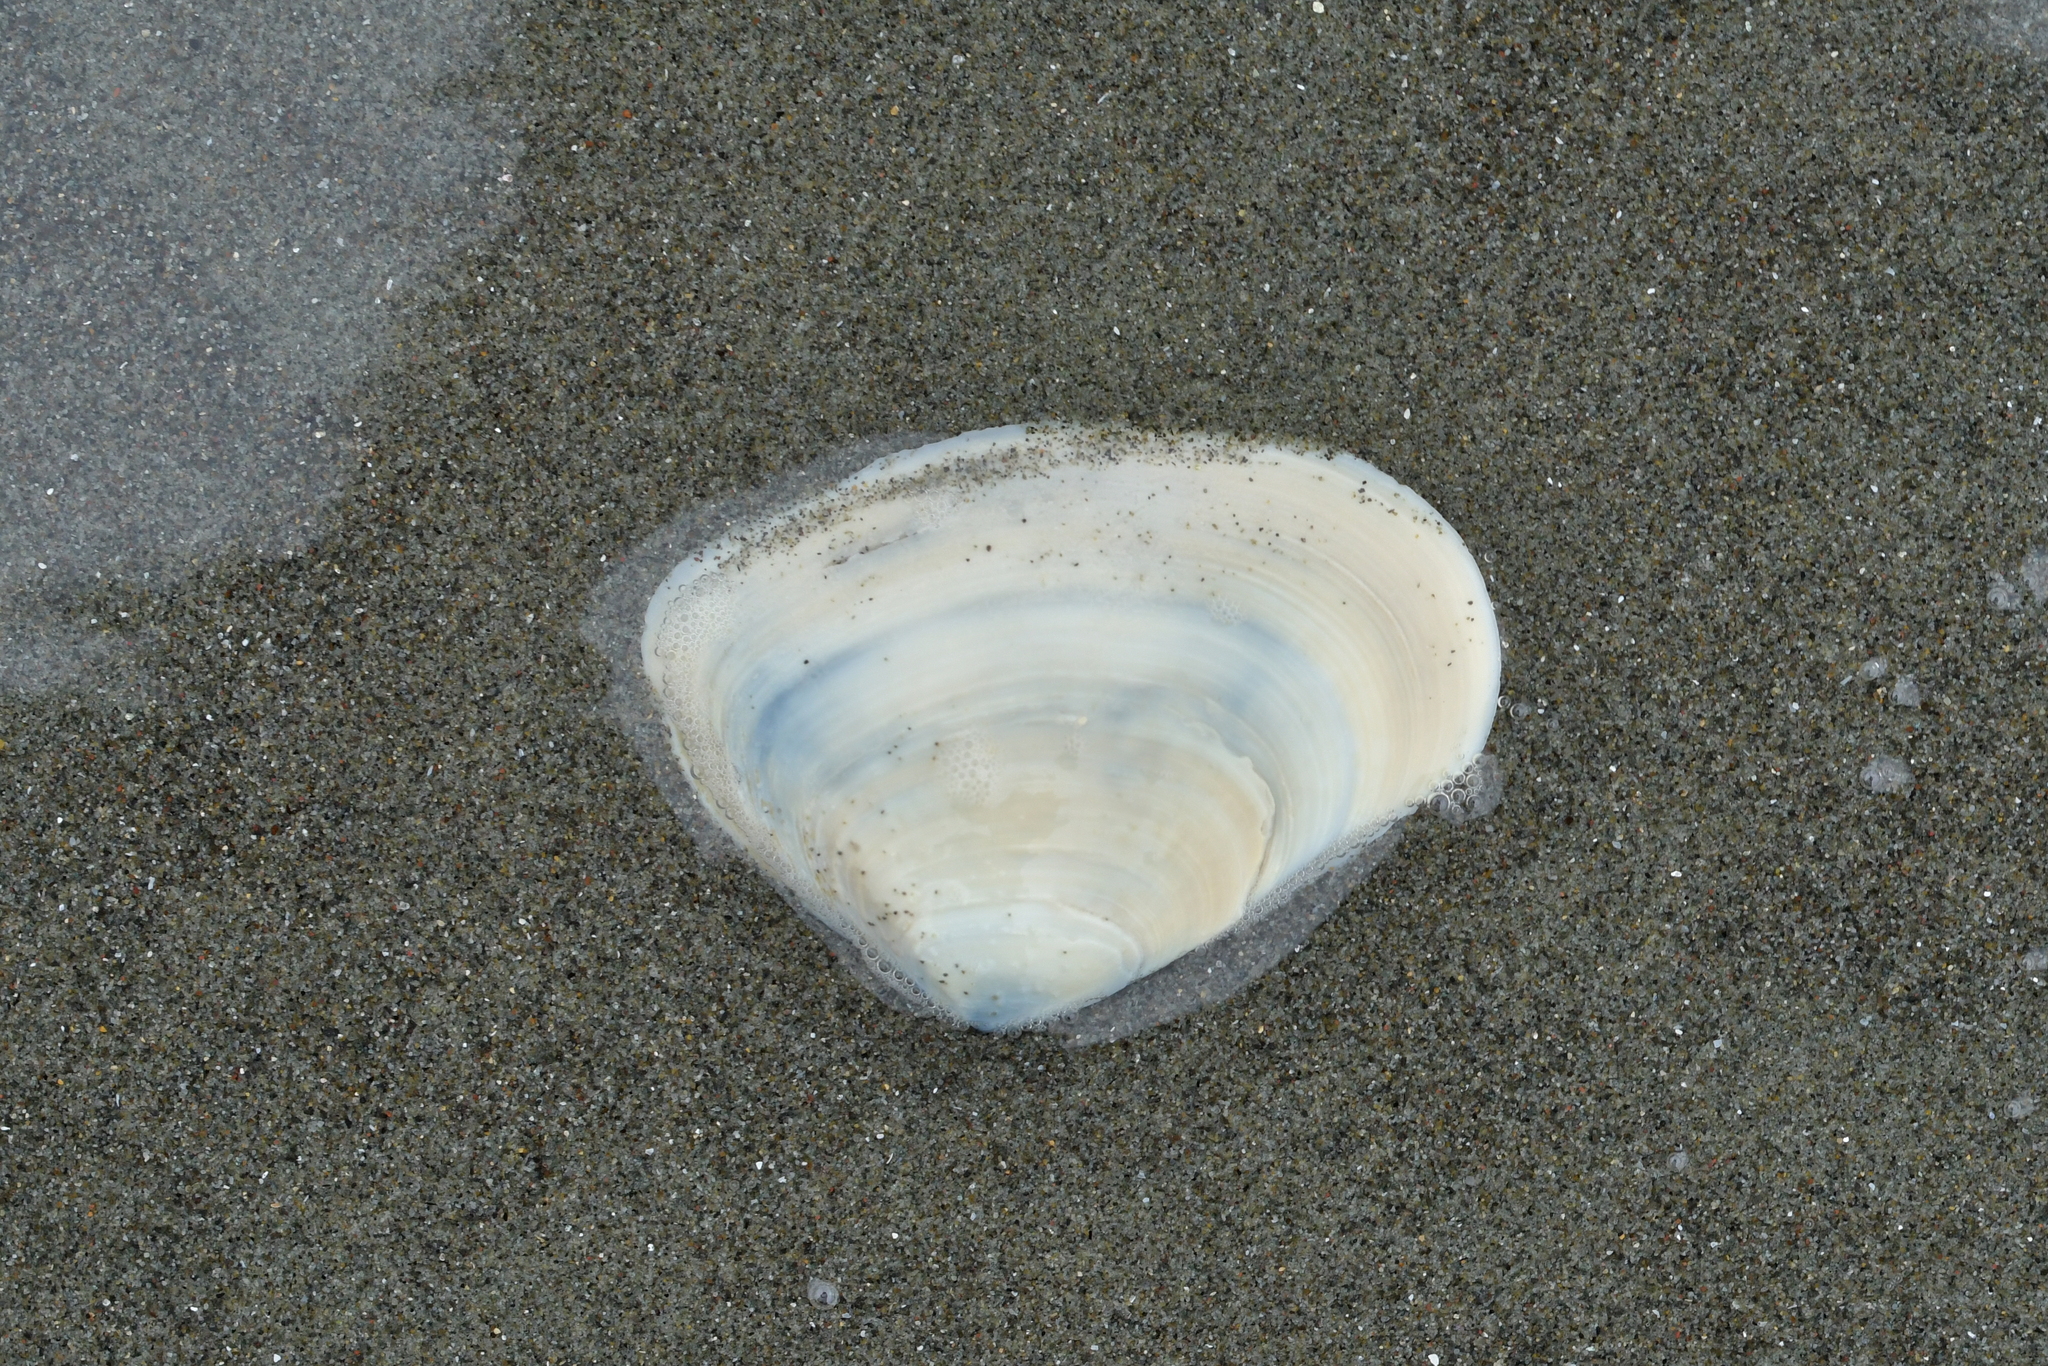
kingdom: Animalia
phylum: Mollusca
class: Bivalvia
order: Venerida
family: Mesodesmatidae
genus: Paphies
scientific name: Paphies donacina
